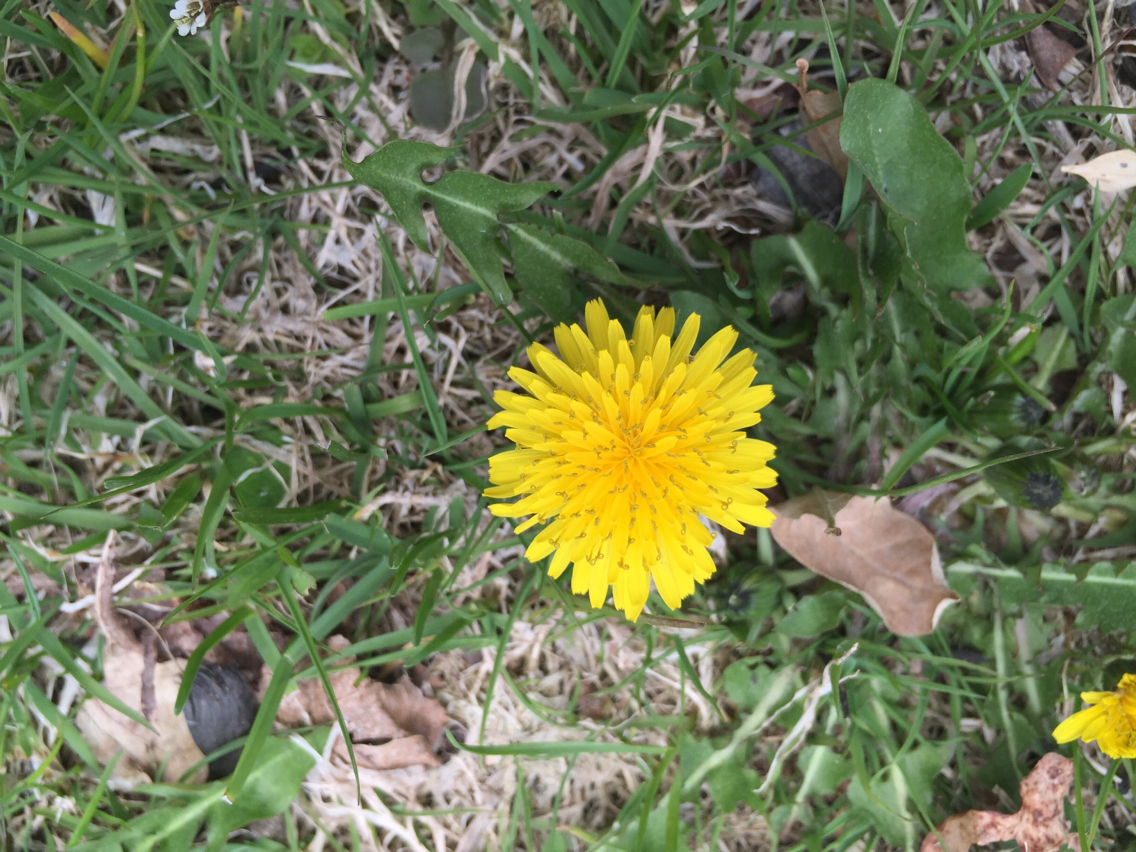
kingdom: Plantae
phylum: Tracheophyta
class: Magnoliopsida
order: Asterales
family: Asteraceae
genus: Taraxacum
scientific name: Taraxacum
